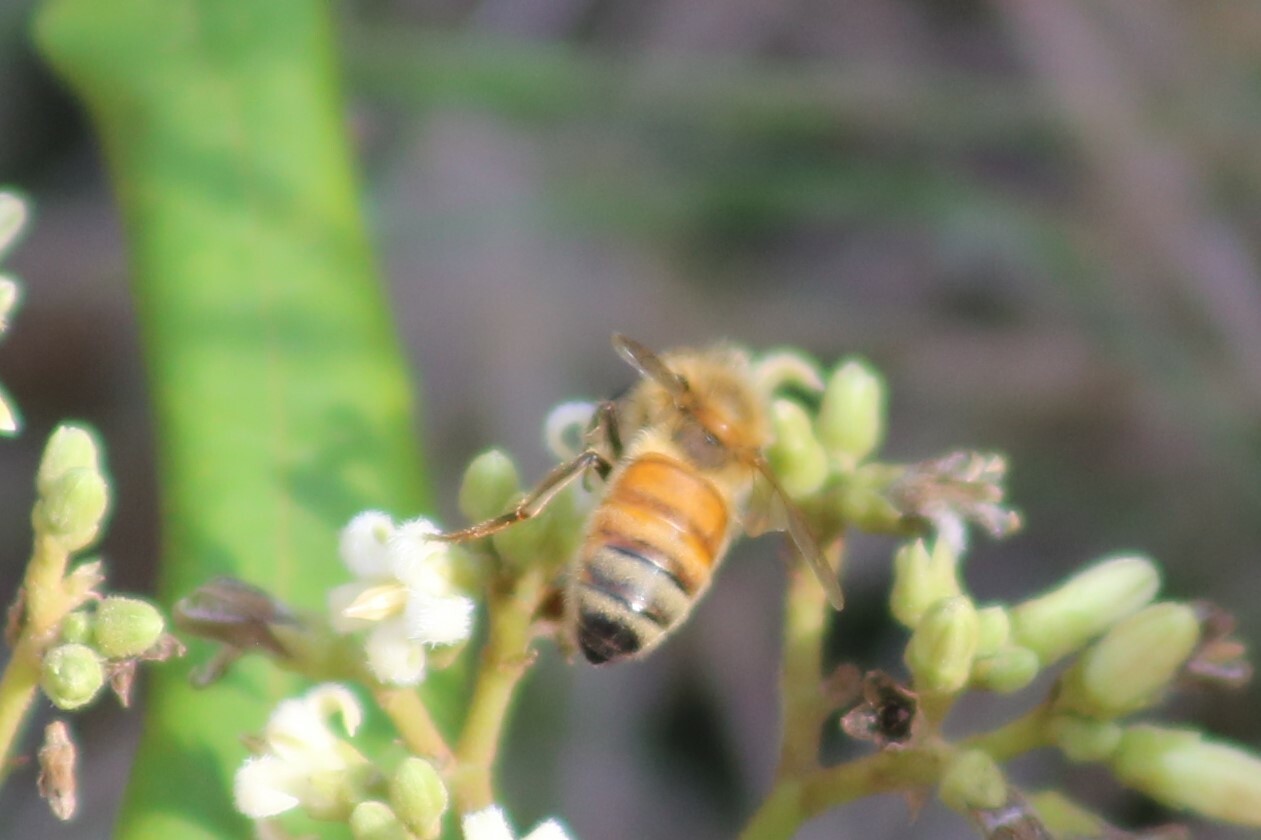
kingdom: Animalia
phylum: Arthropoda
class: Insecta
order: Hymenoptera
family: Apidae
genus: Apis
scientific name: Apis mellifera
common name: Honey bee
